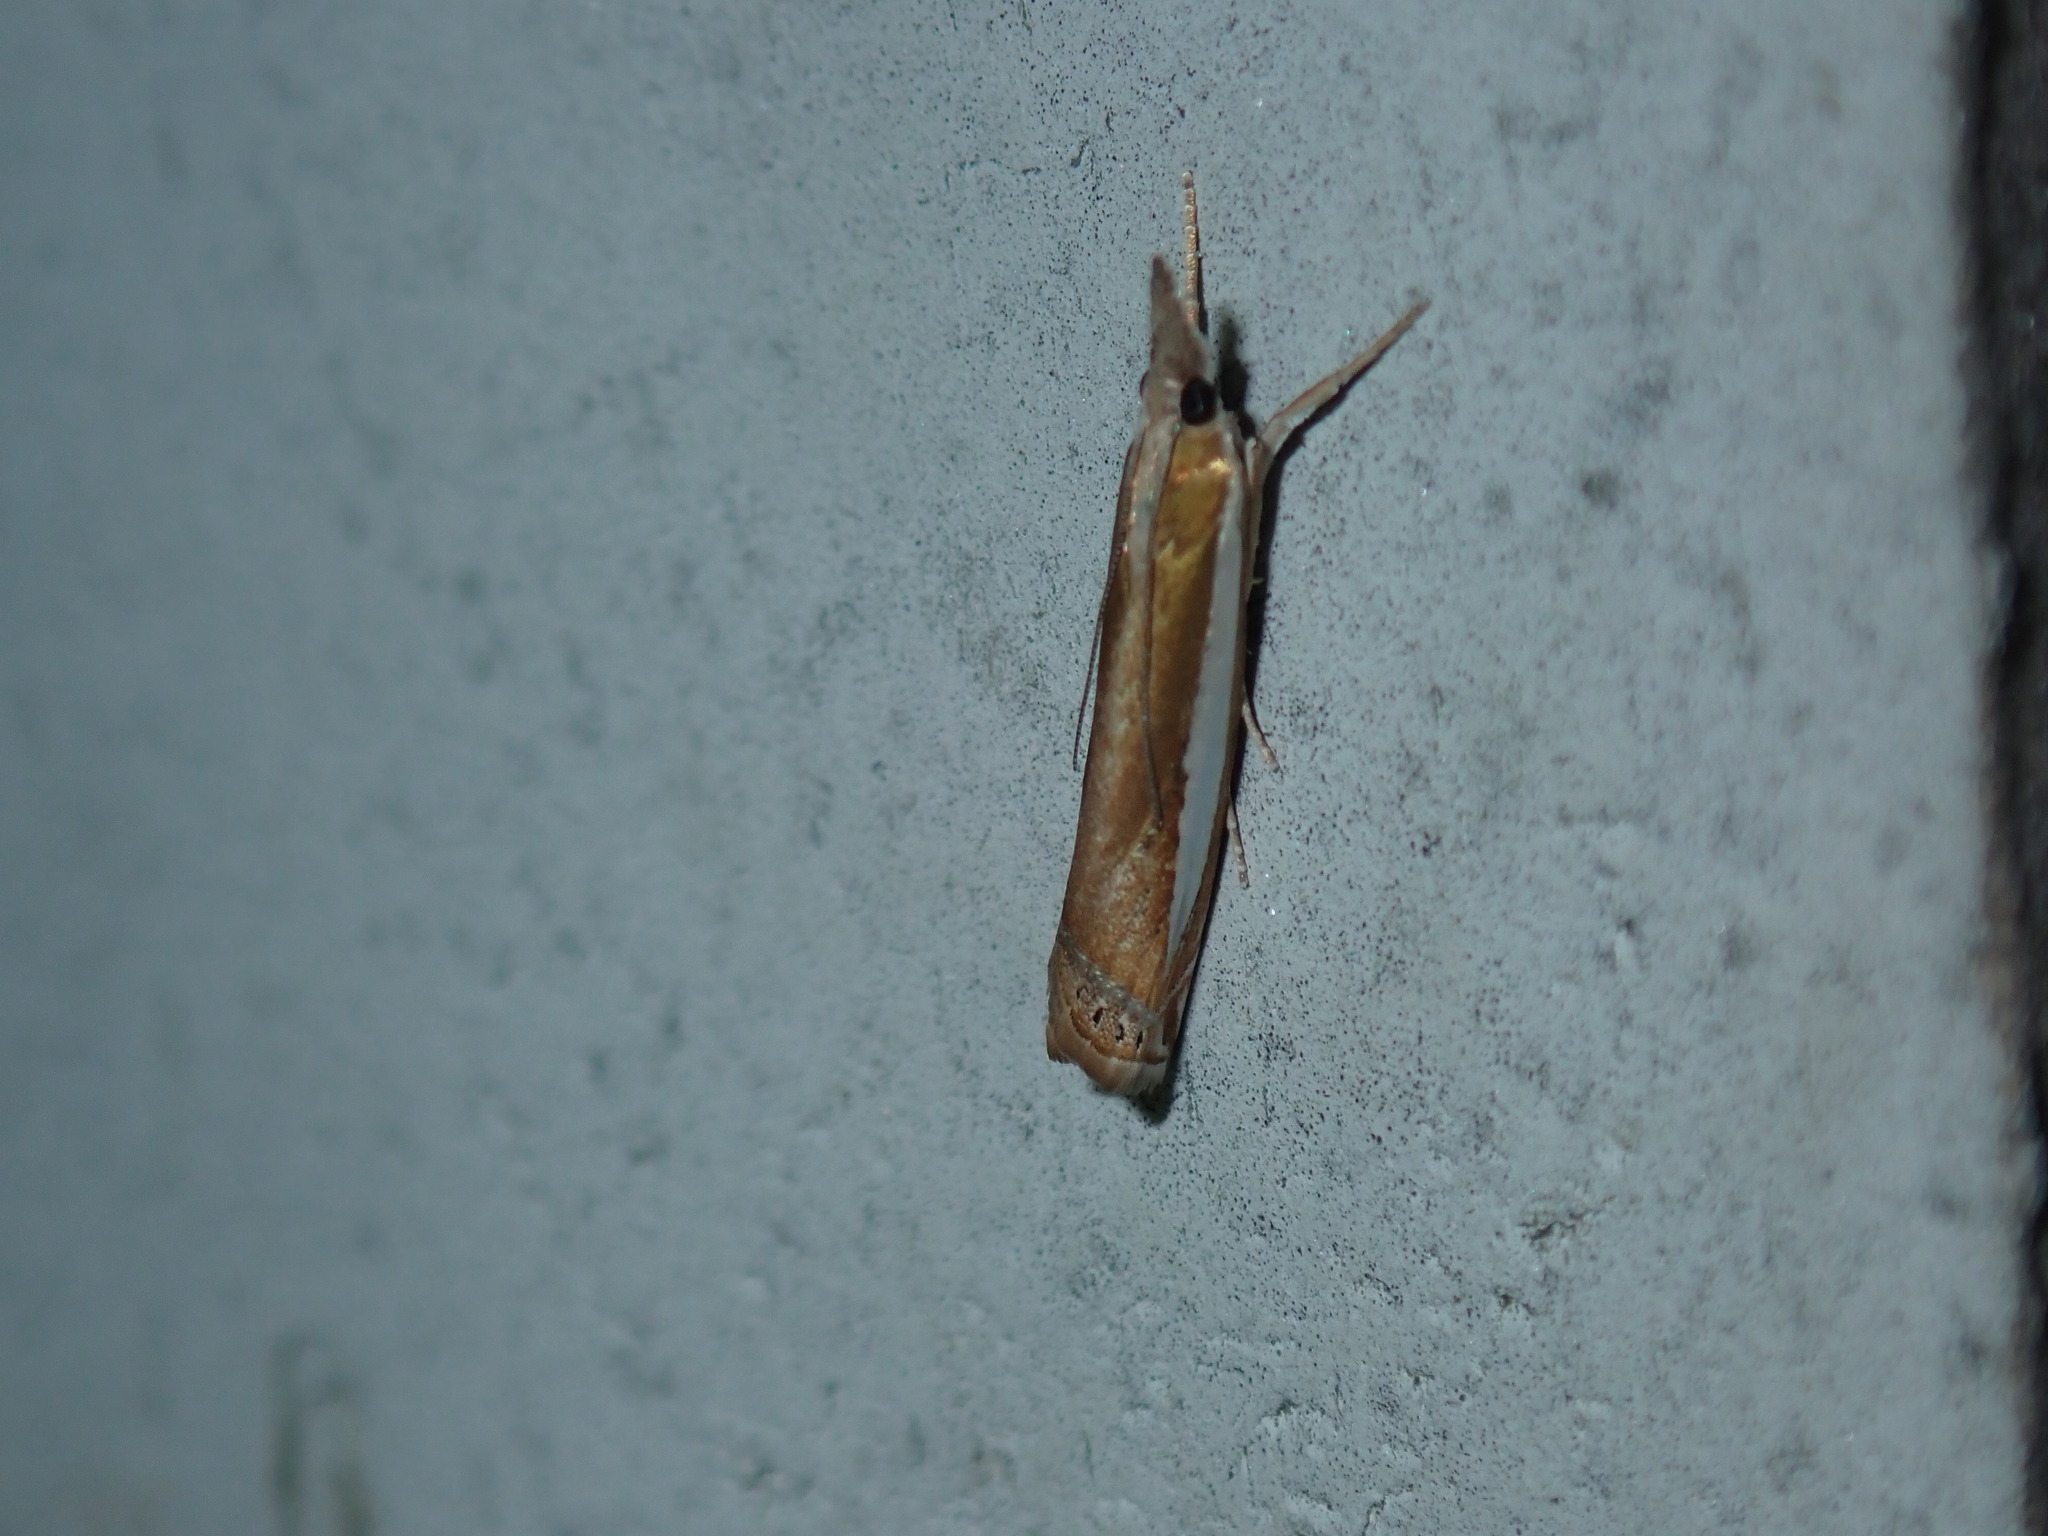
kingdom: Animalia
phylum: Arthropoda
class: Insecta
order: Lepidoptera
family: Crambidae
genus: Crambus
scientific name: Crambus praefectellus
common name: Common grass-veneer
